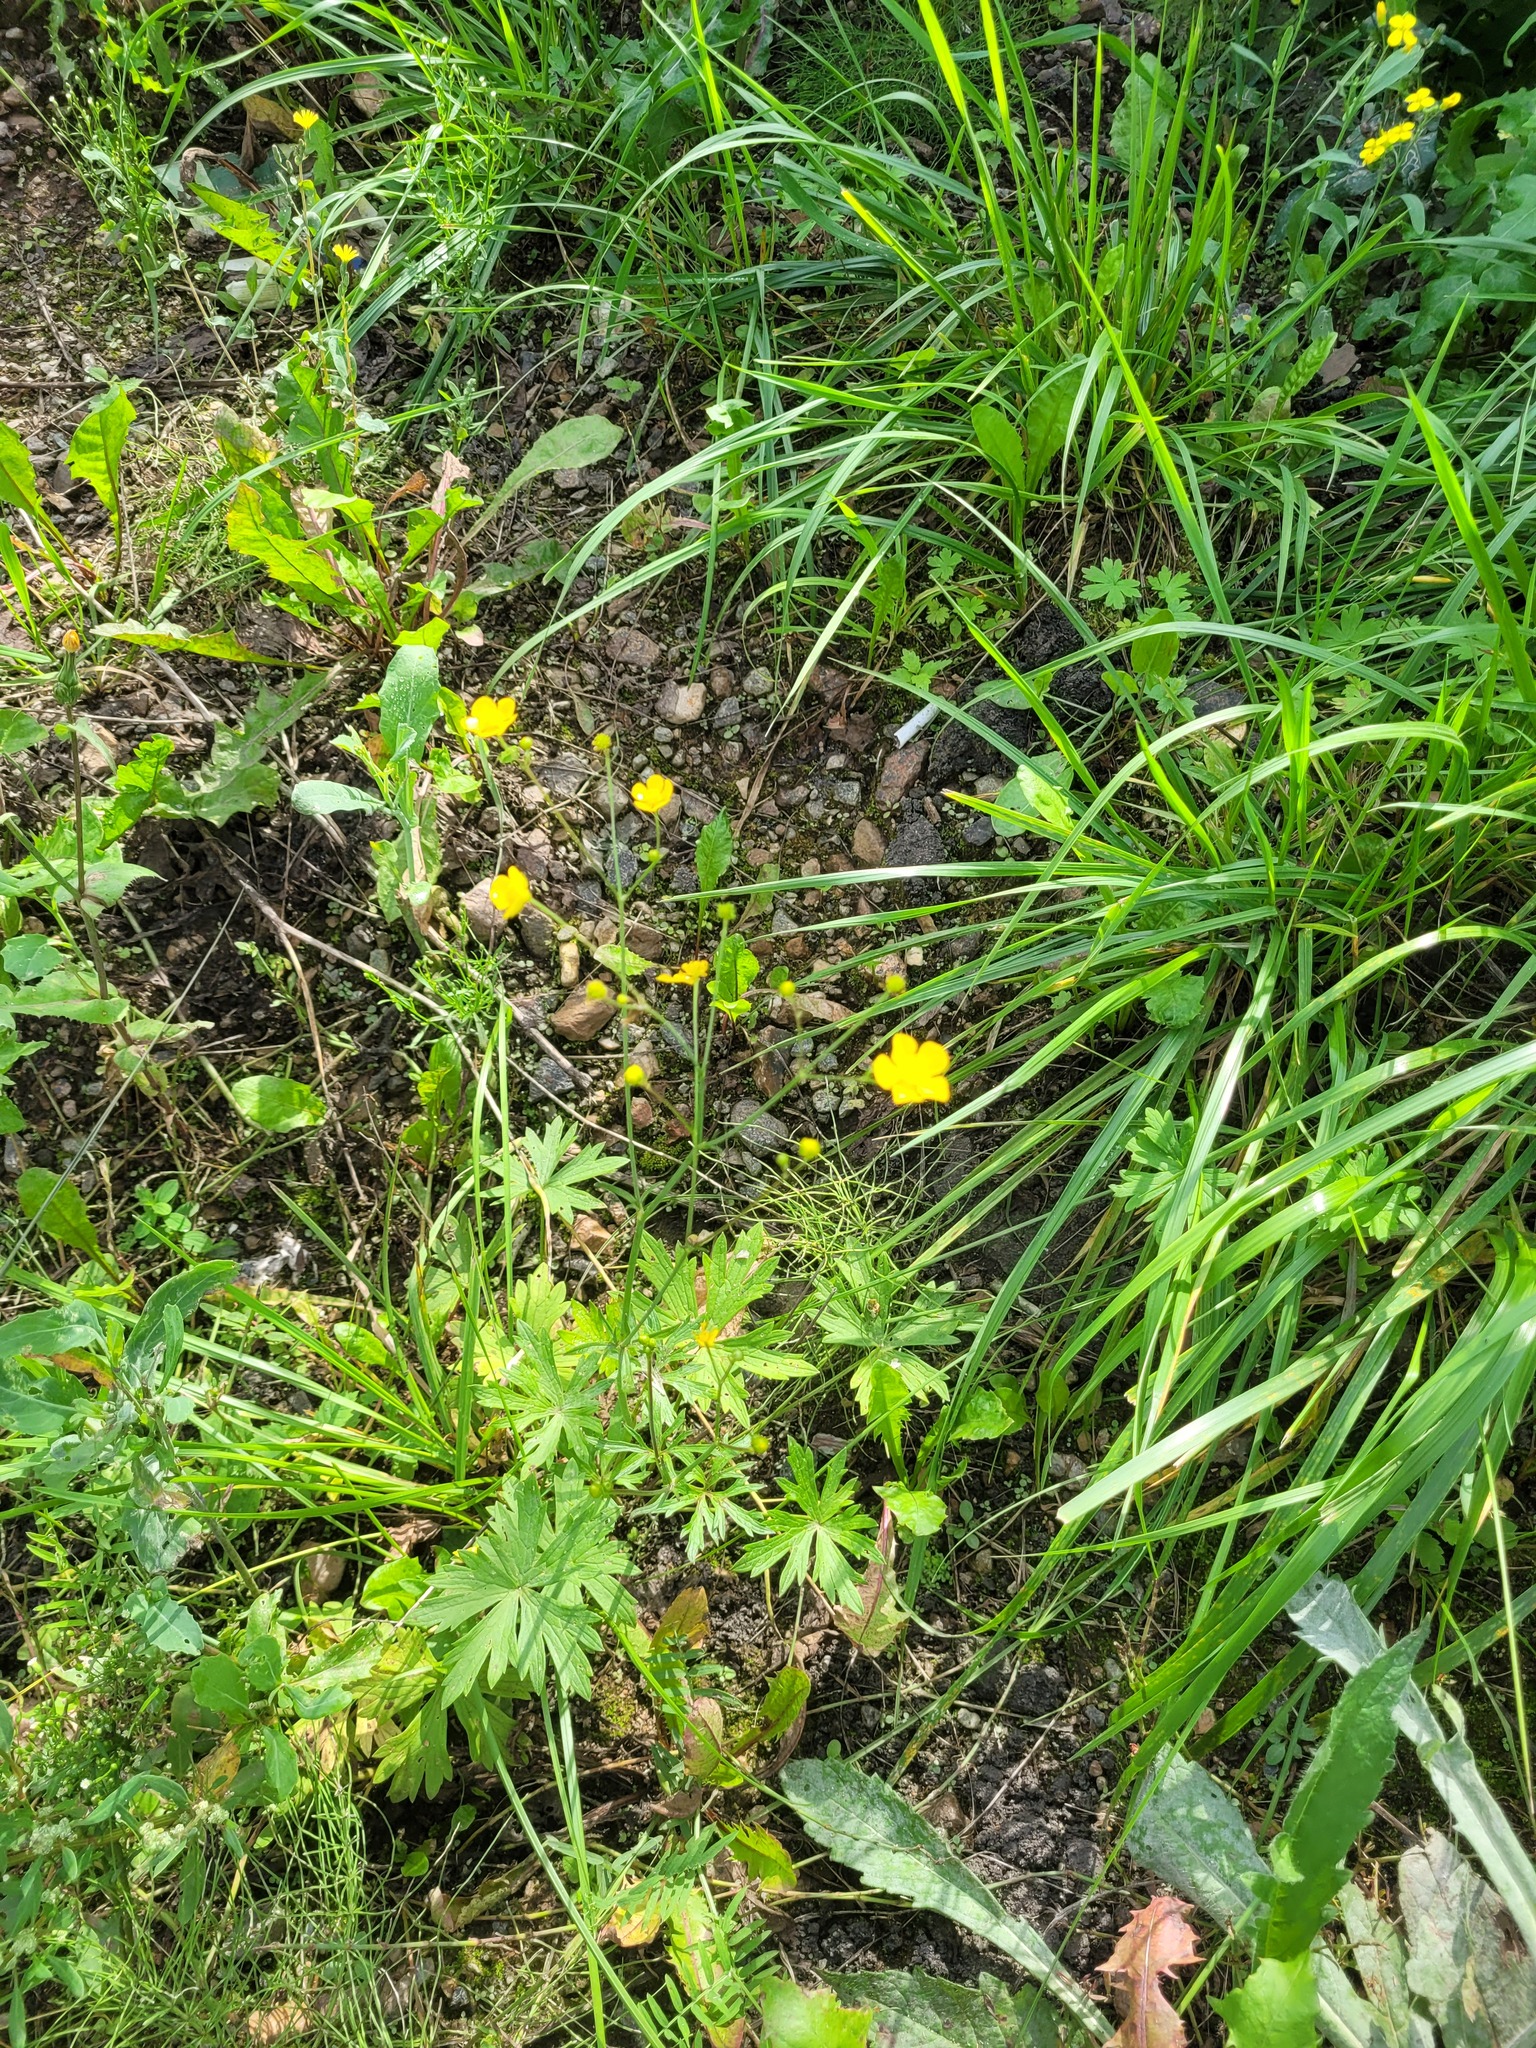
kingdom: Plantae
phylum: Tracheophyta
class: Magnoliopsida
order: Ranunculales
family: Ranunculaceae
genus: Ranunculus
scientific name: Ranunculus acris
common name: Meadow buttercup
